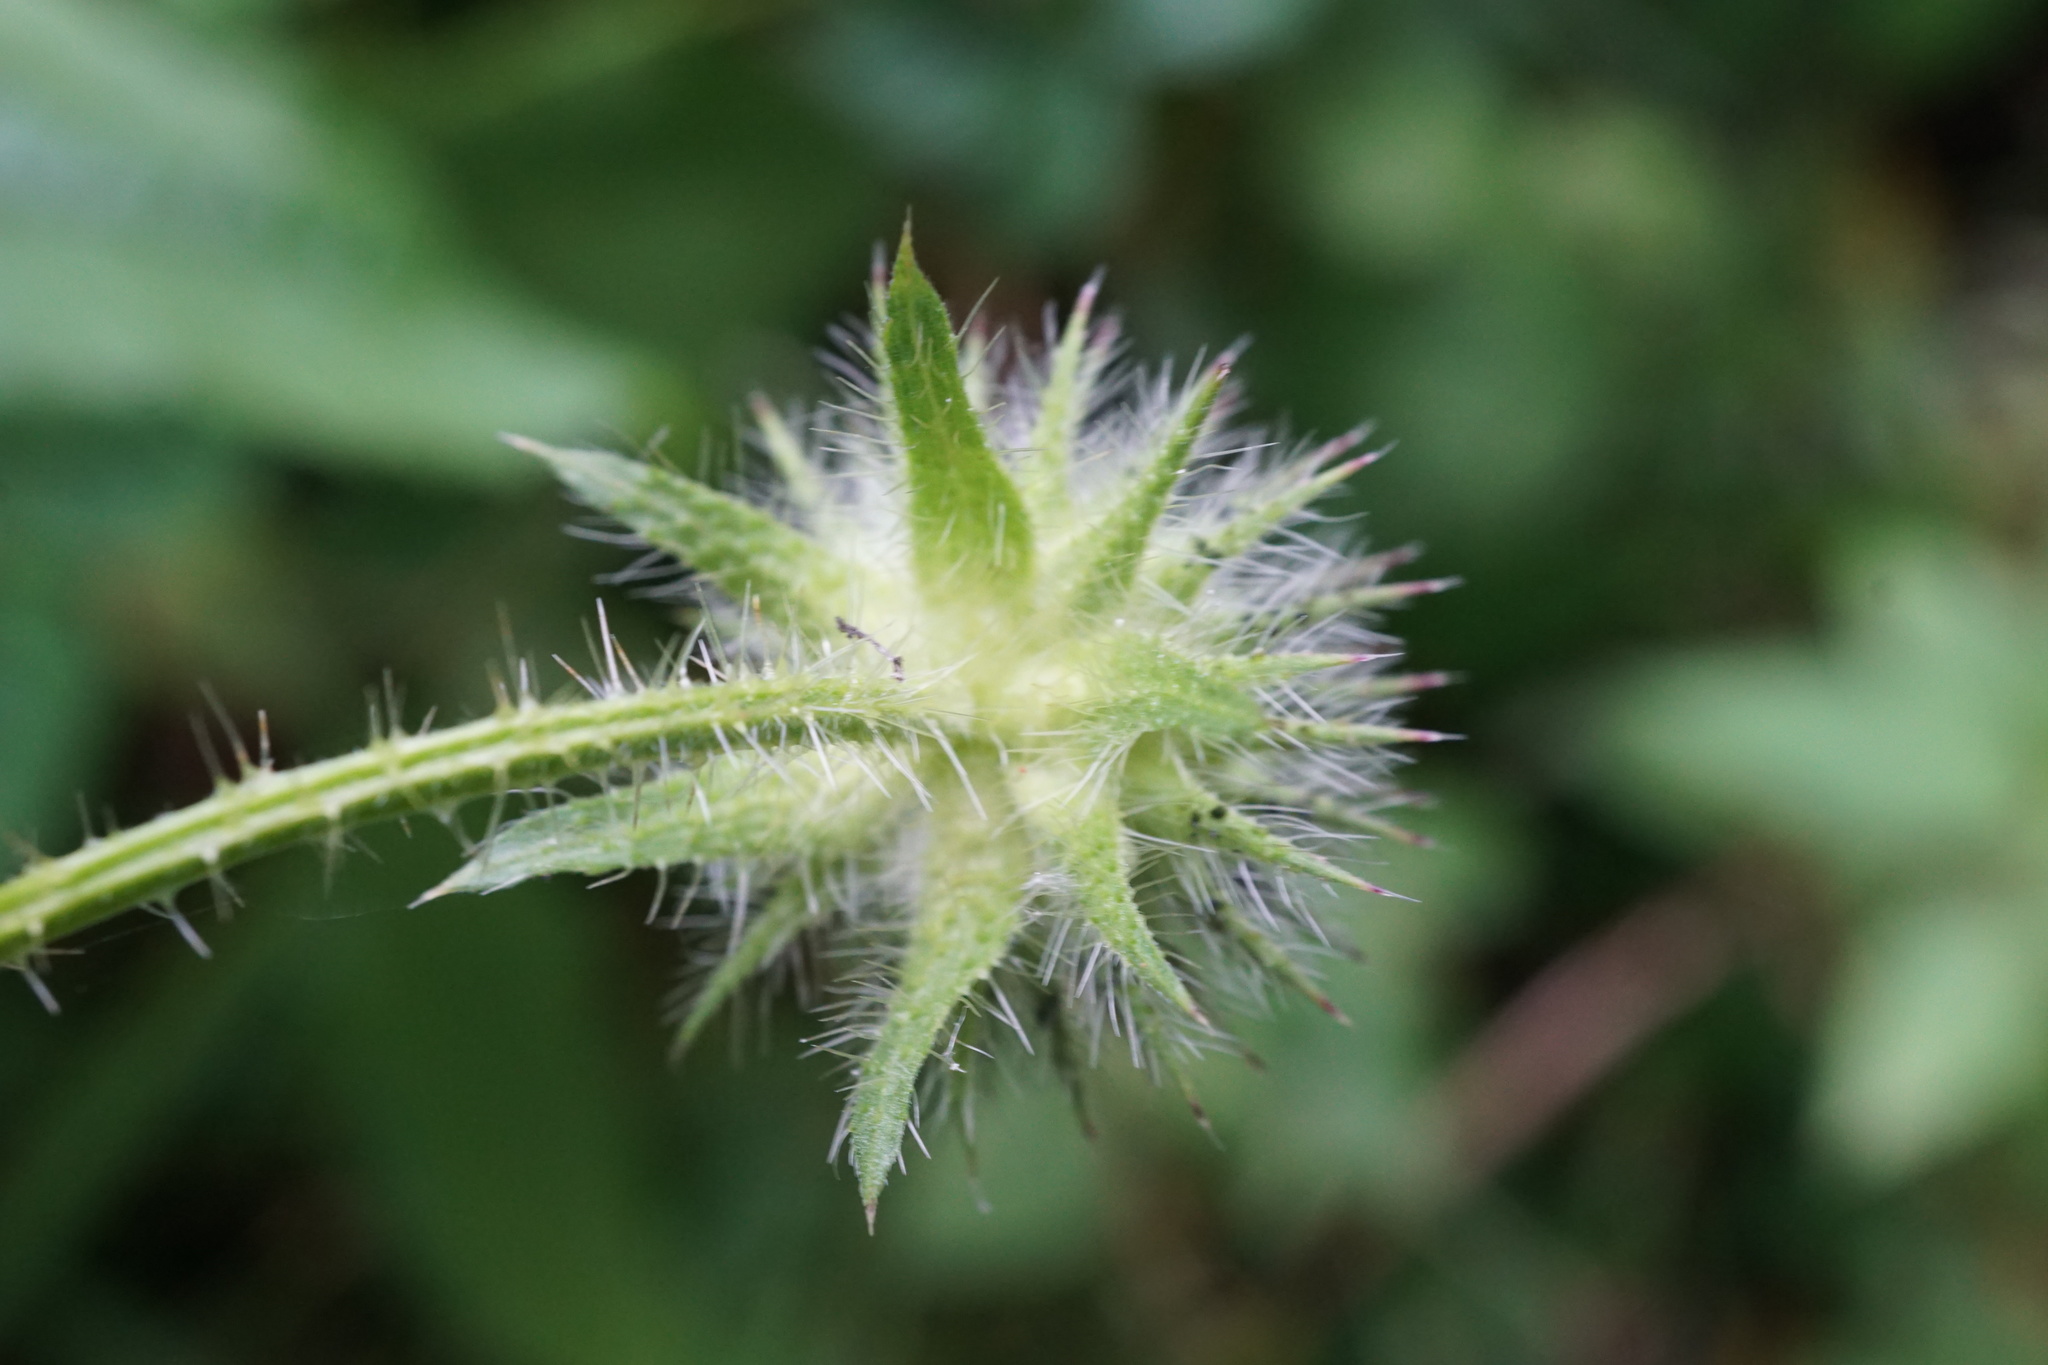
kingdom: Plantae
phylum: Tracheophyta
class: Magnoliopsida
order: Dipsacales
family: Caprifoliaceae
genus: Dipsacus
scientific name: Dipsacus pilosus
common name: Small teasel
